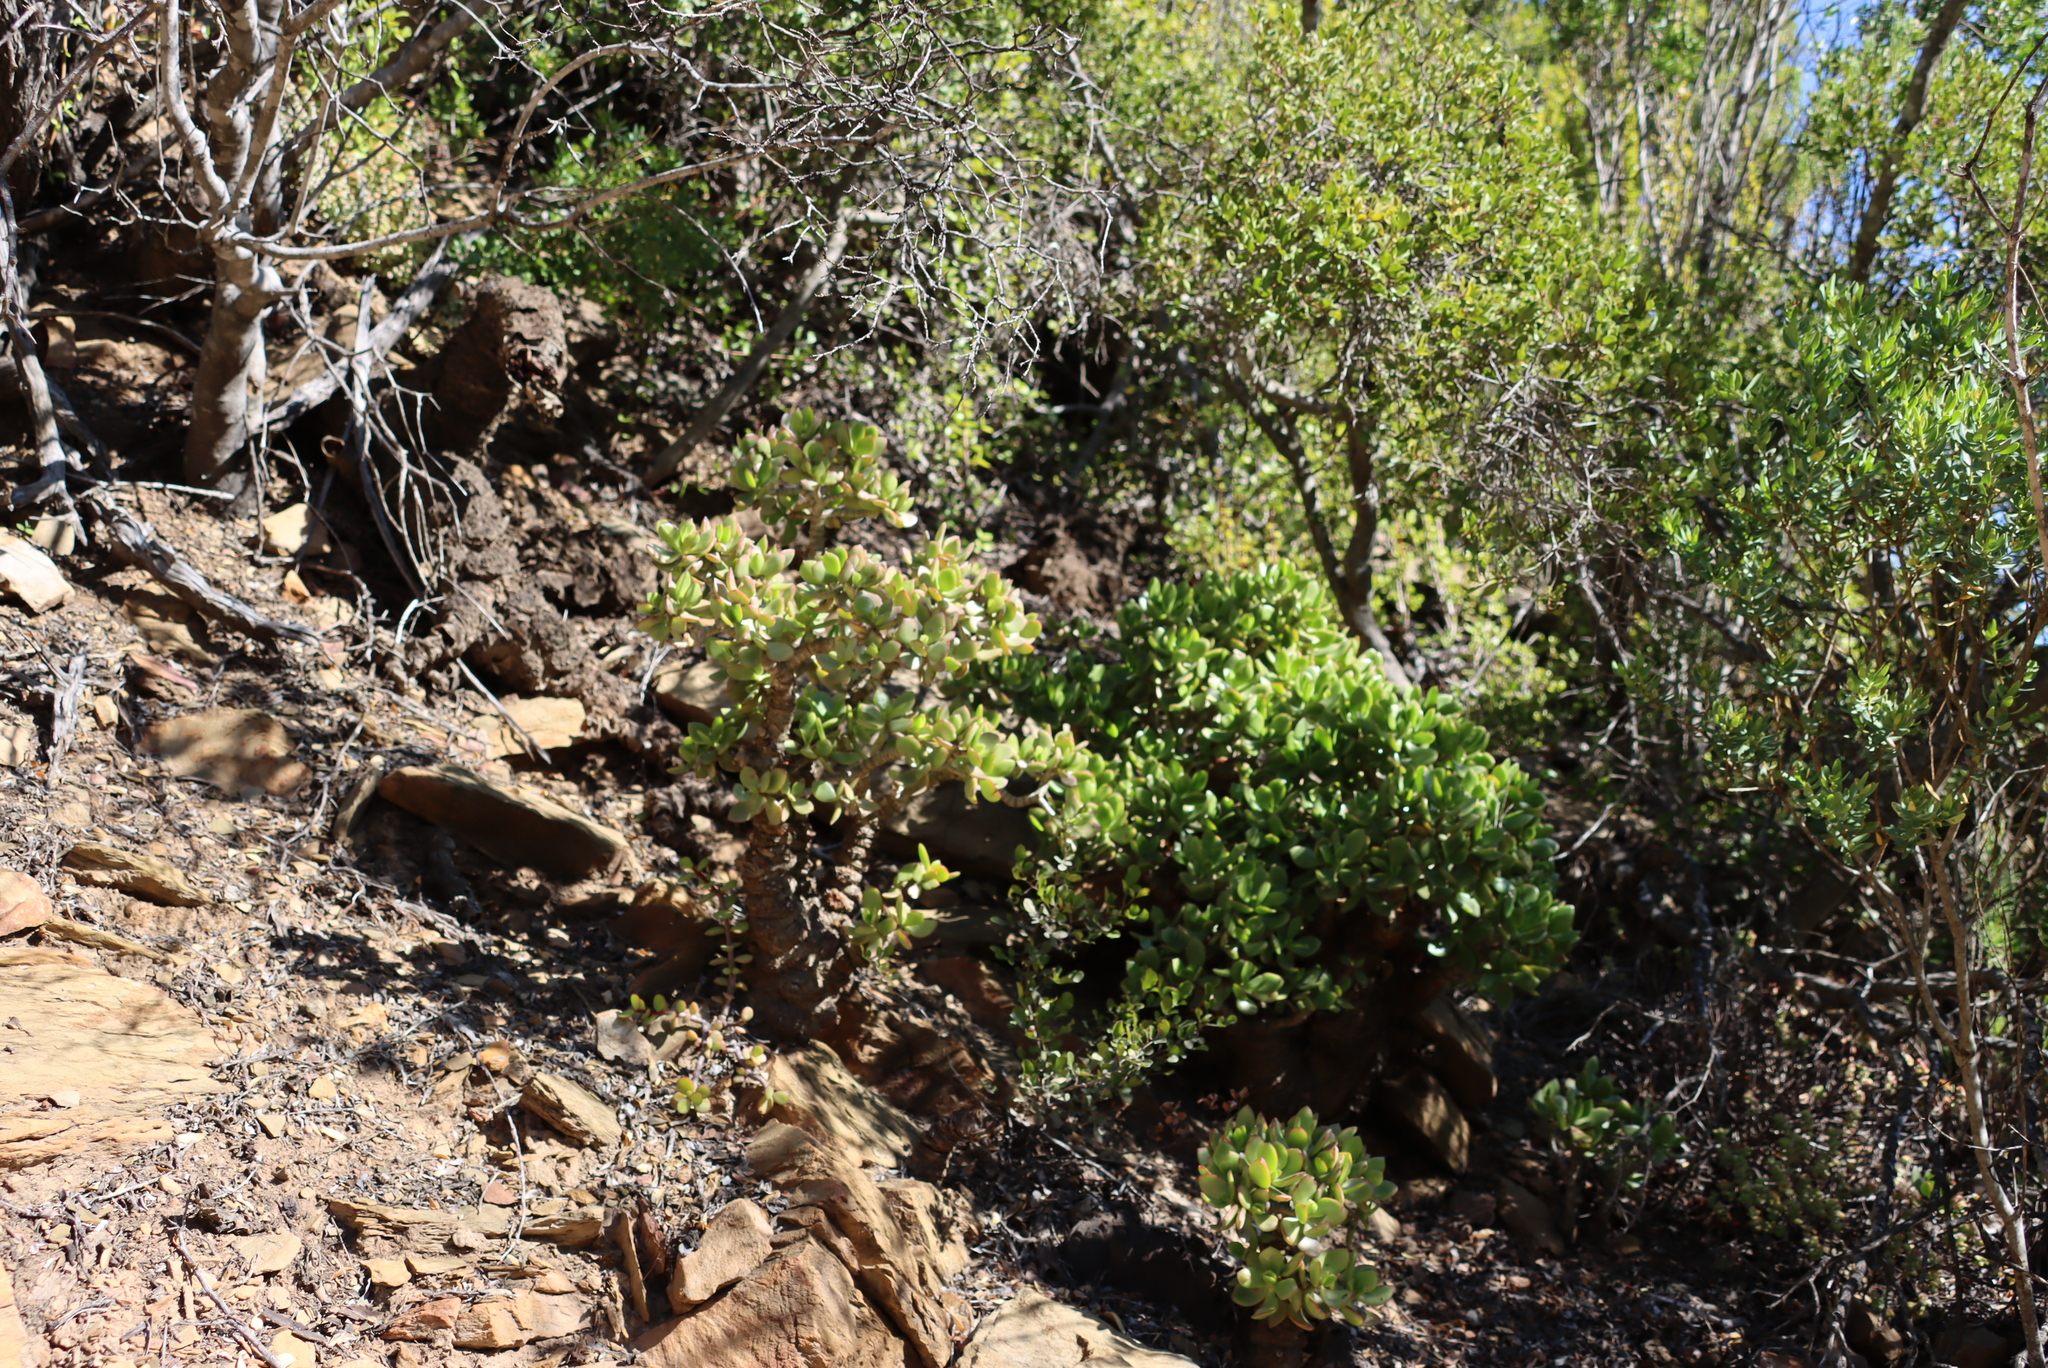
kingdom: Plantae
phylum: Tracheophyta
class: Magnoliopsida
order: Saxifragales
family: Crassulaceae
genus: Crassula
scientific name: Crassula ovata
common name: Jade plant
